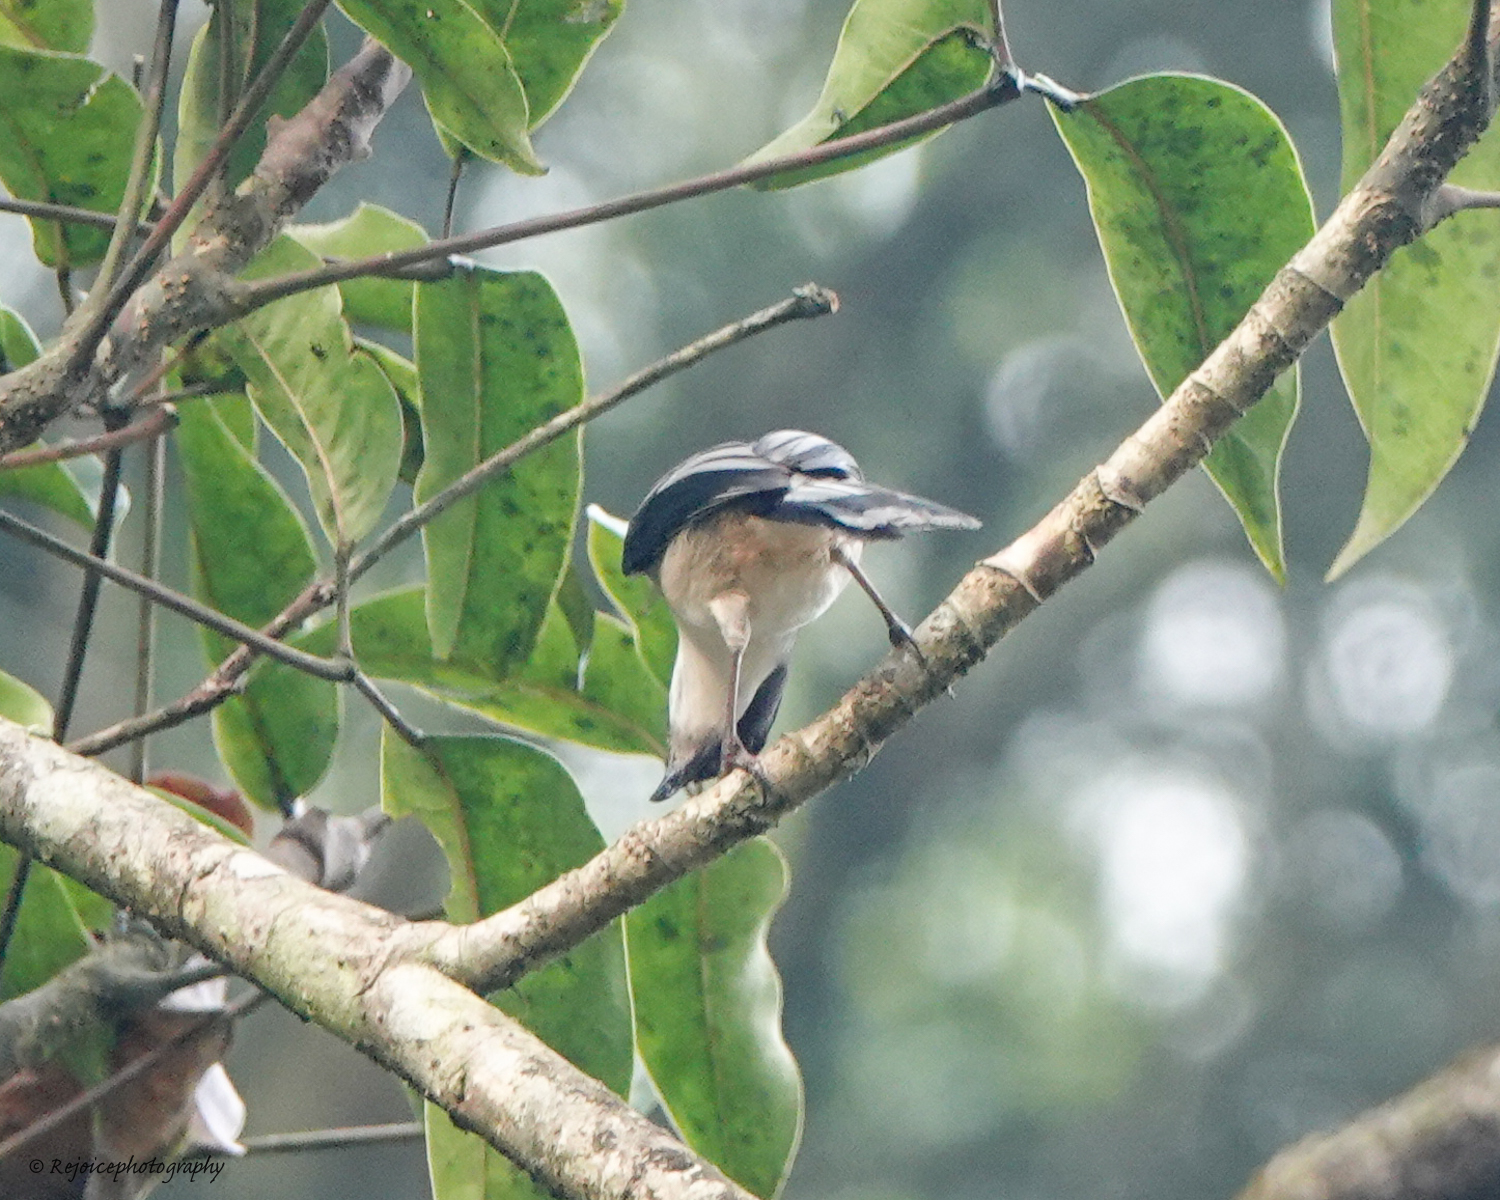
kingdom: Animalia
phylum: Chordata
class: Aves
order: Passeriformes
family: Leiothrichidae
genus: Heterophasia
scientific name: Heterophasia gracilis
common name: Grey sibia
